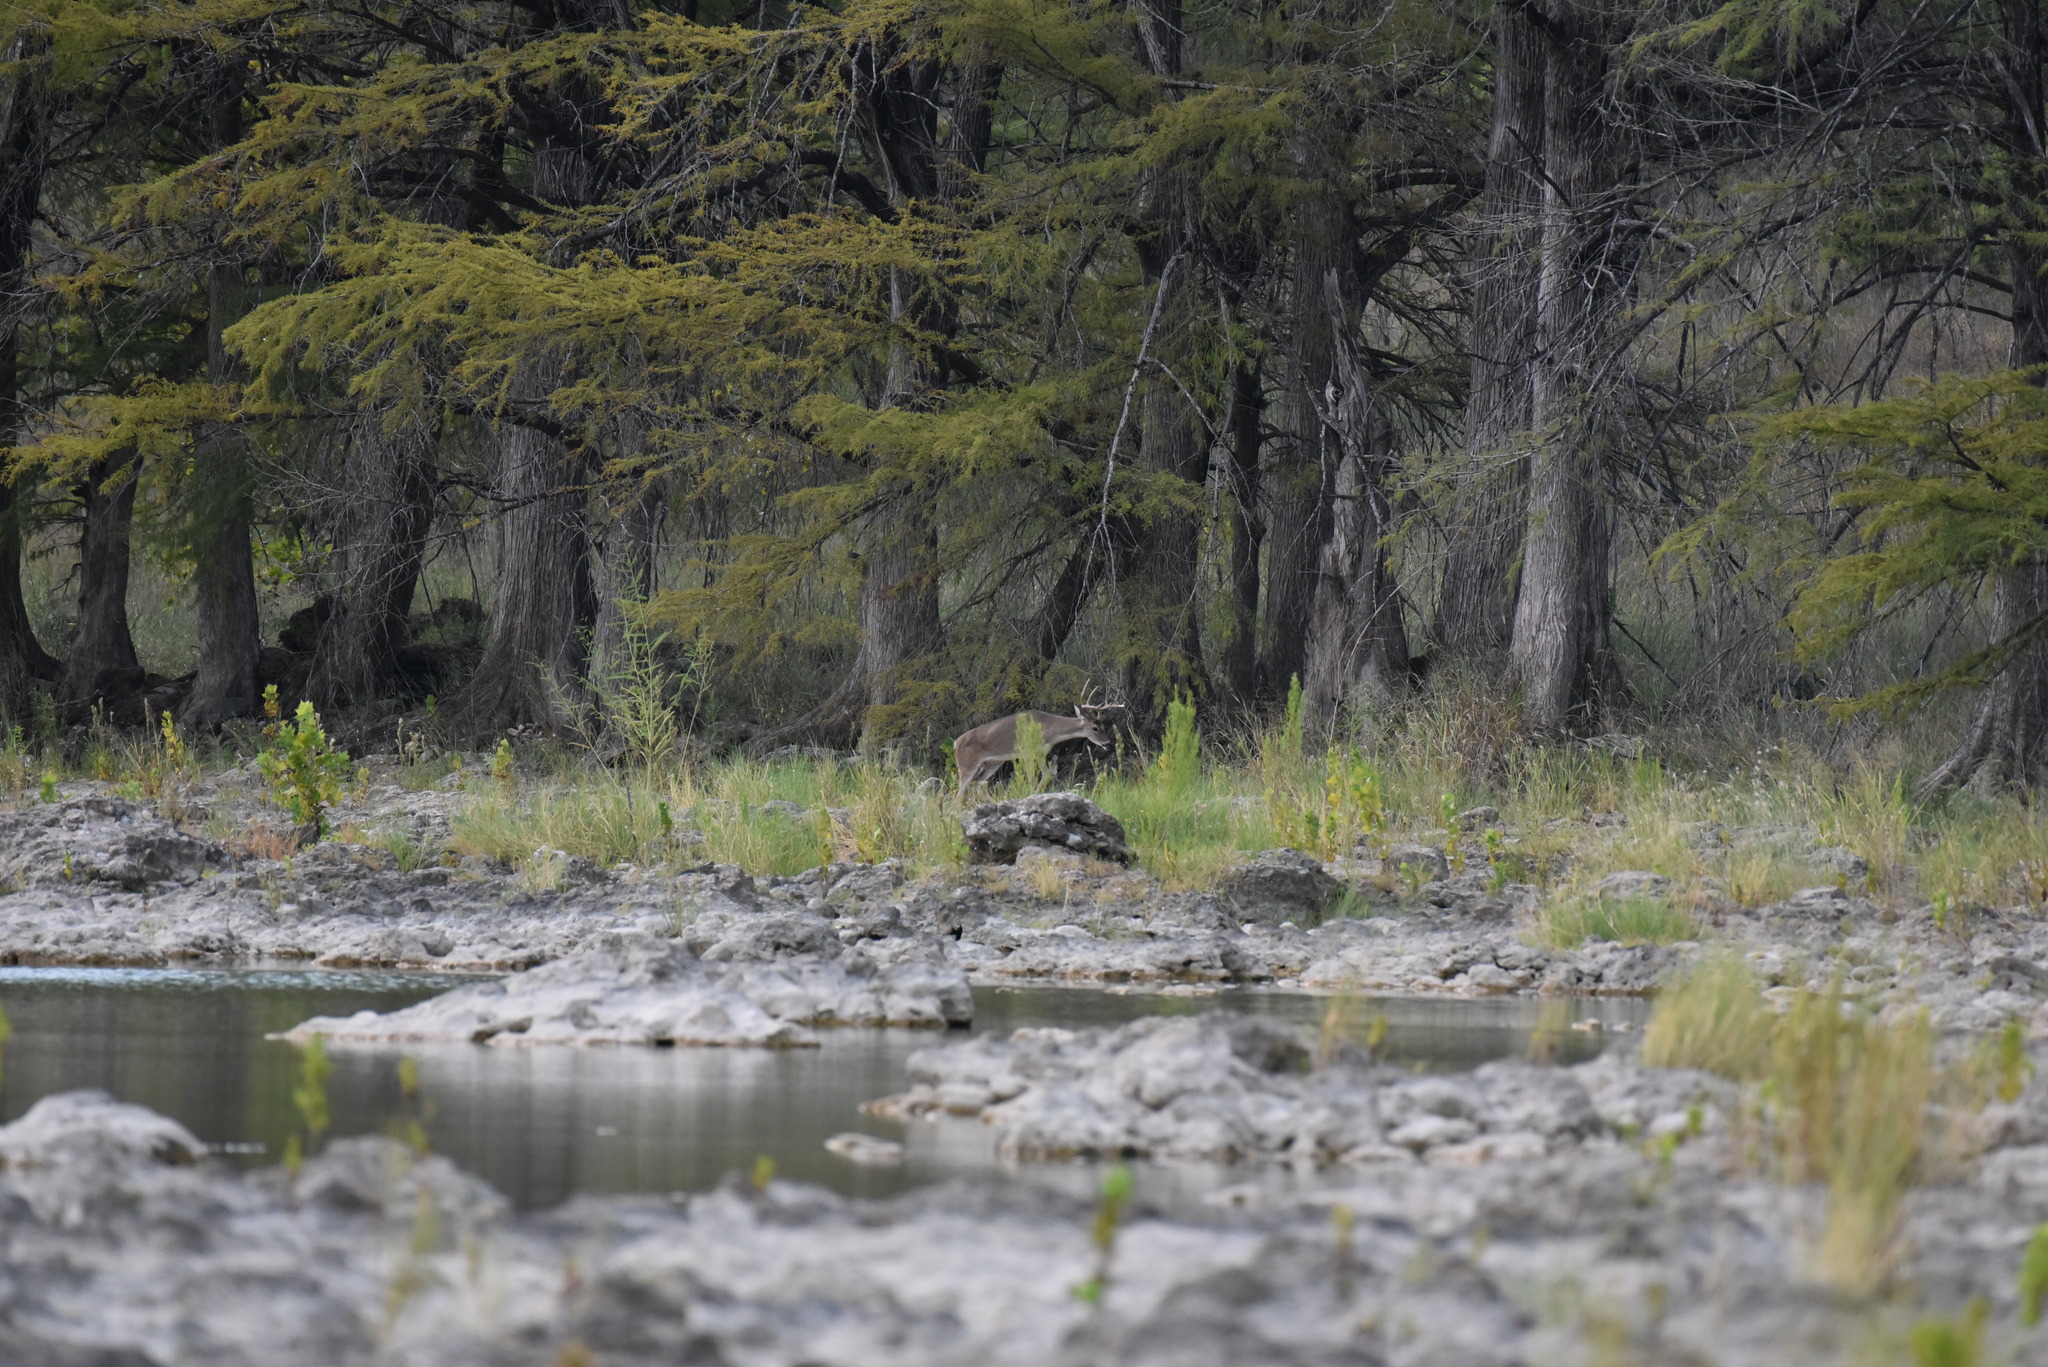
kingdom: Animalia
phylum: Chordata
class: Mammalia
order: Artiodactyla
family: Cervidae
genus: Odocoileus
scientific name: Odocoileus virginianus
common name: White-tailed deer
